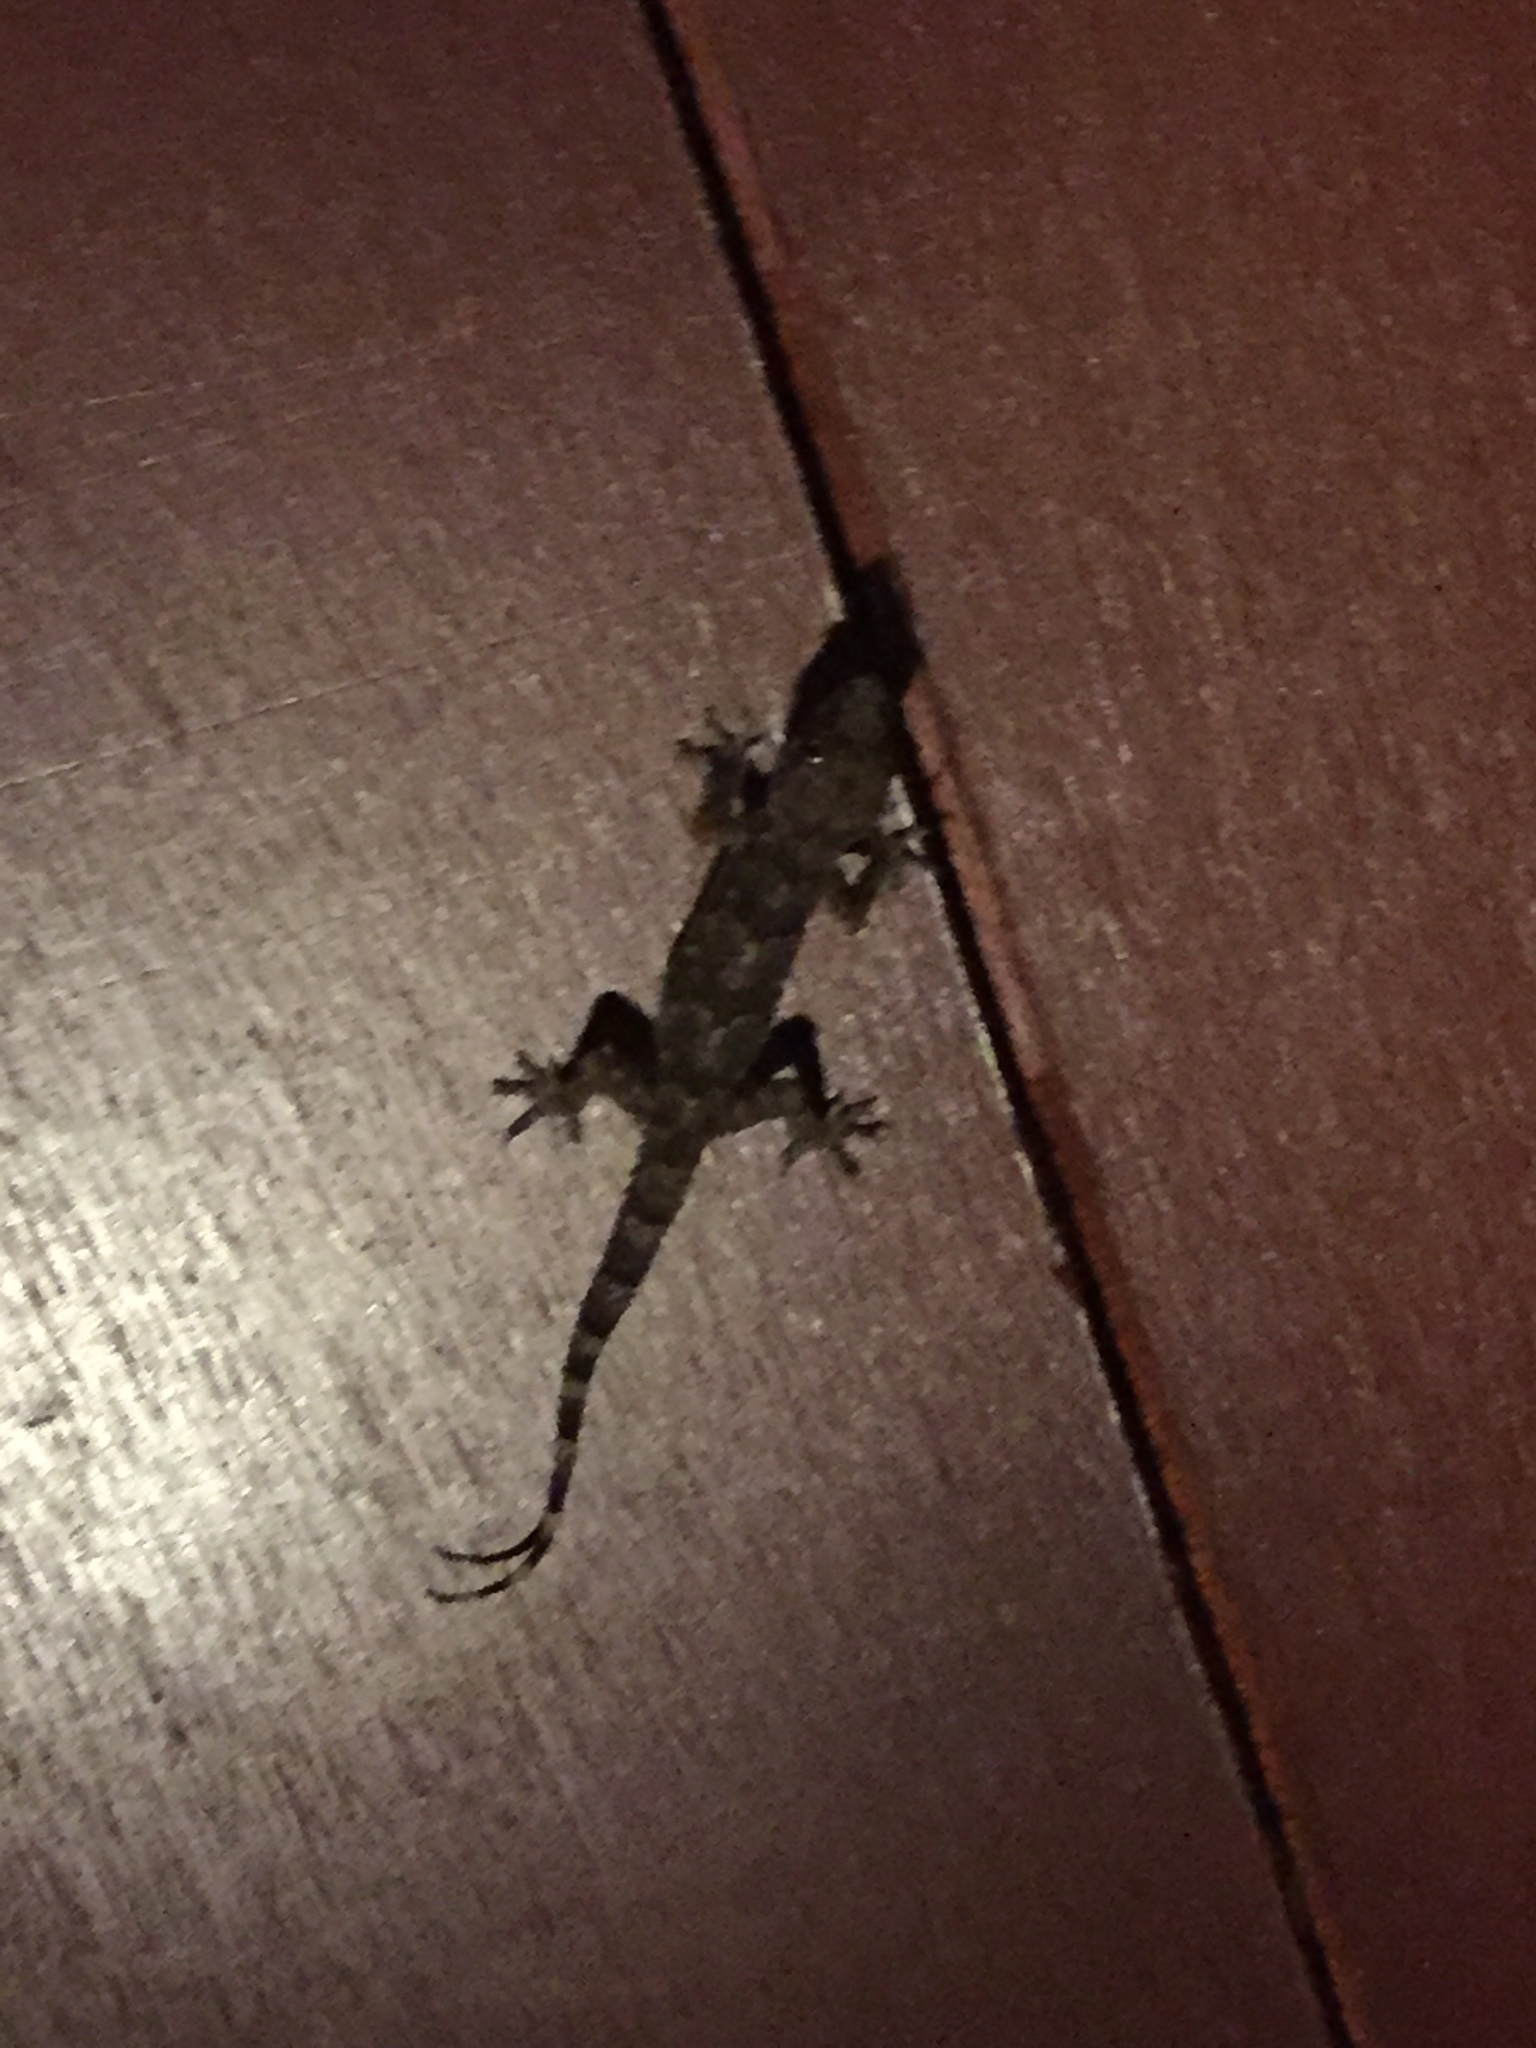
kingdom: Animalia
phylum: Chordata
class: Squamata
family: Gekkonidae
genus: Hemidactylus
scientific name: Hemidactylus mabouia
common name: House gecko
